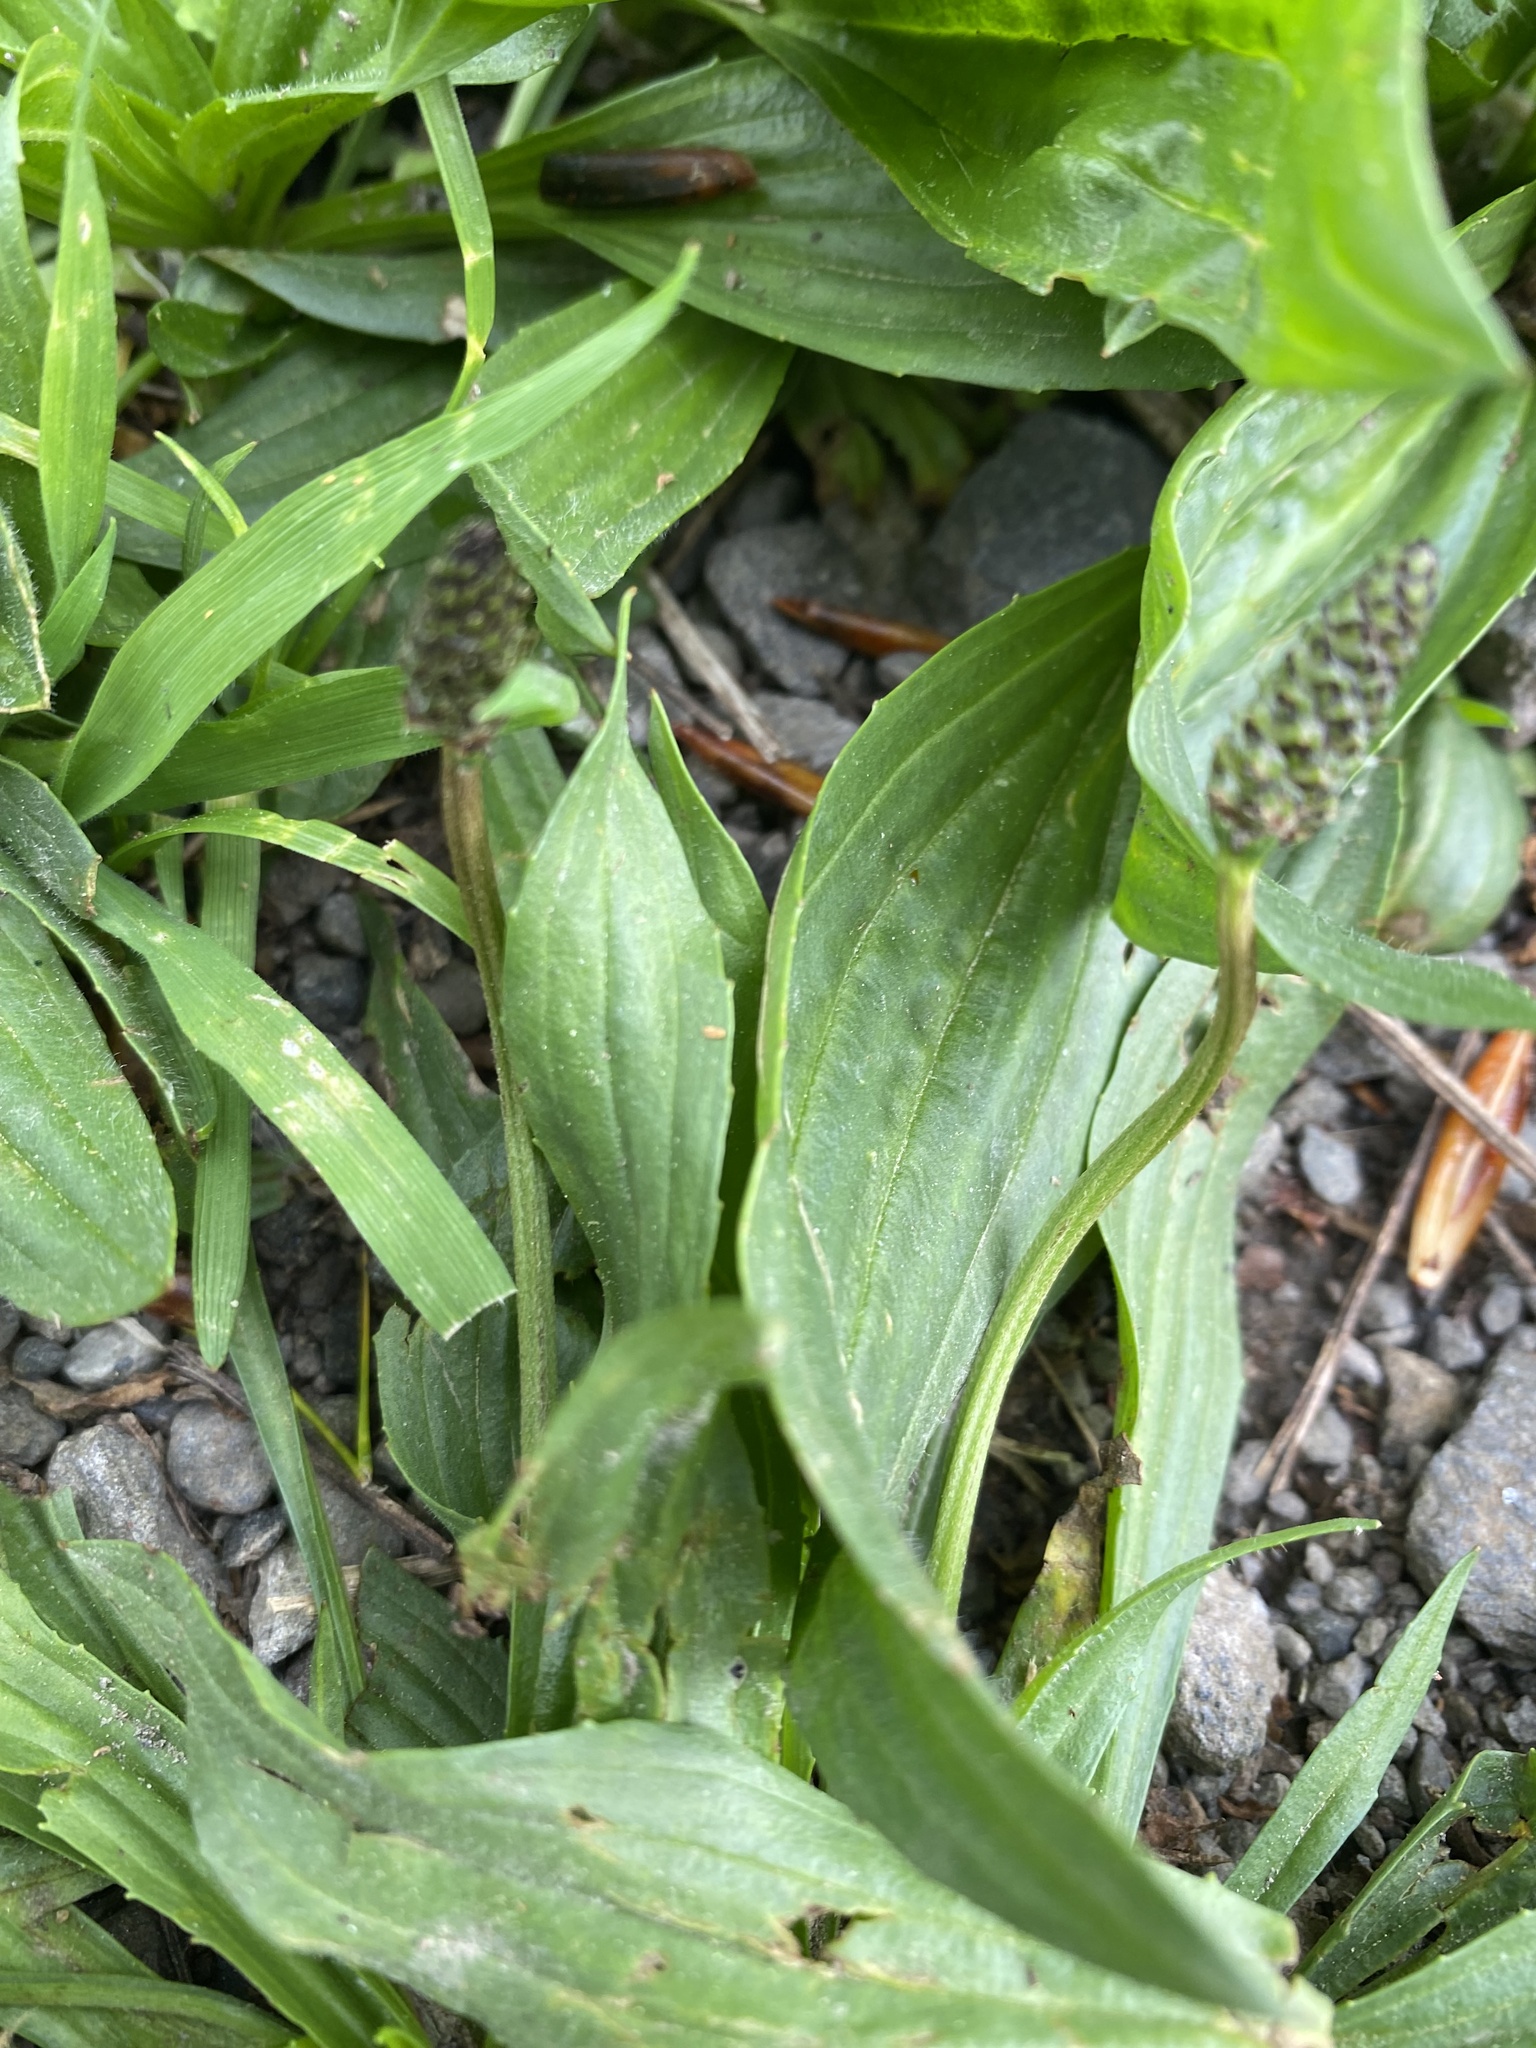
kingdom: Plantae
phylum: Tracheophyta
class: Magnoliopsida
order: Lamiales
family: Plantaginaceae
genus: Plantago
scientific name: Plantago lanceolata
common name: Ribwort plantain
